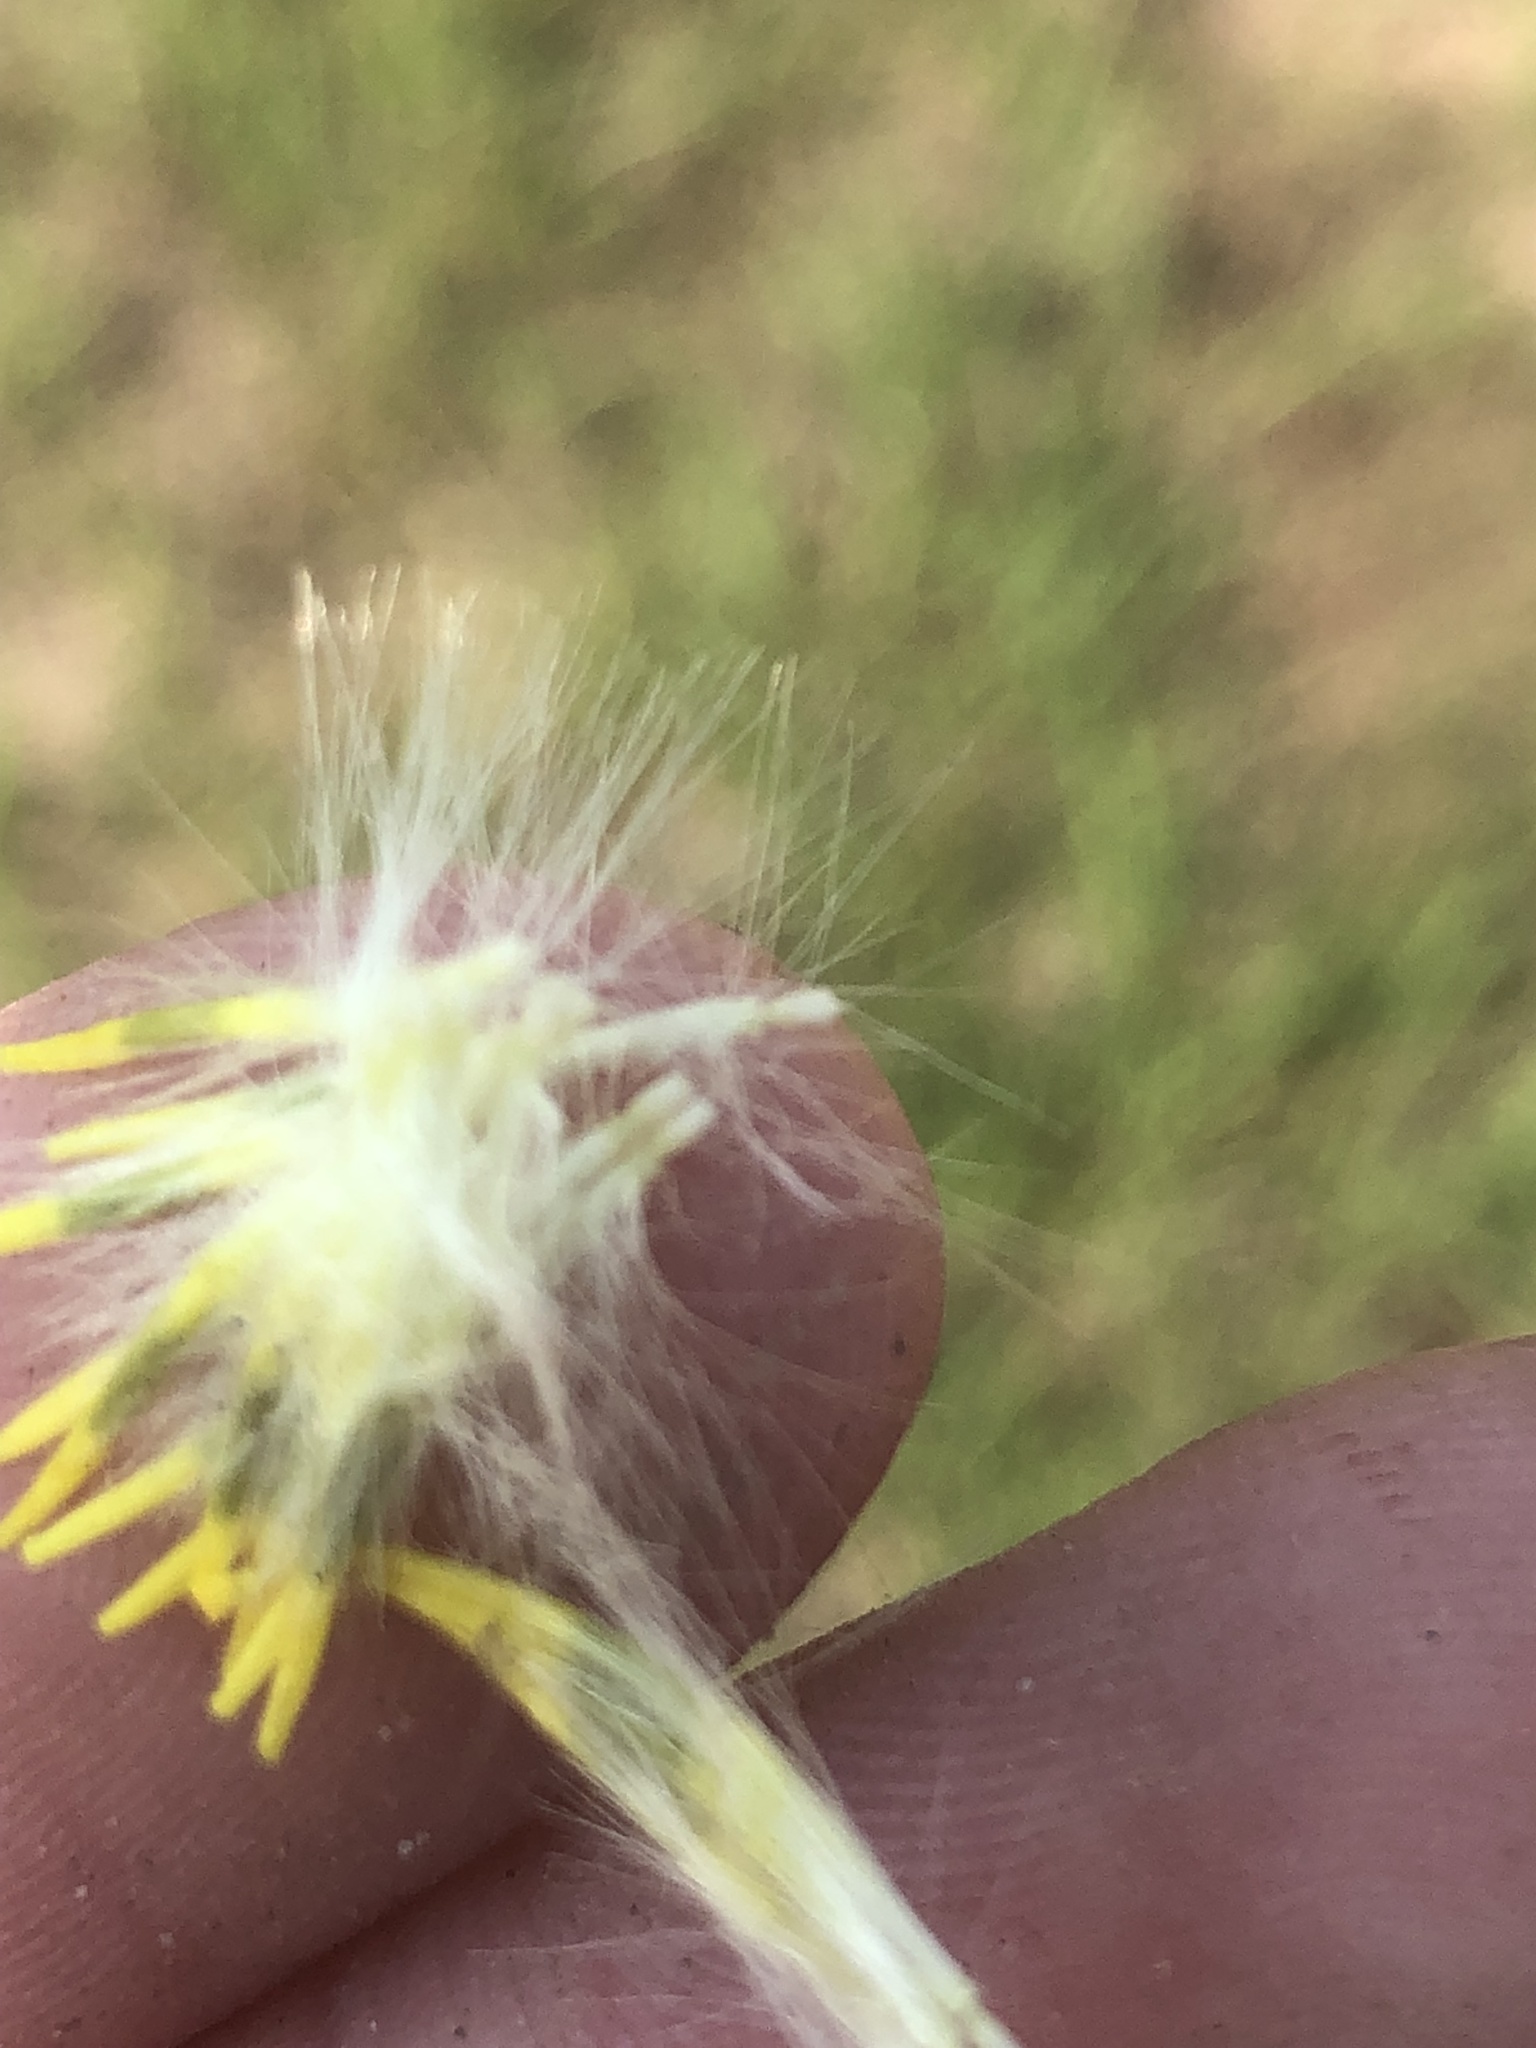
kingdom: Plantae
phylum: Tracheophyta
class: Magnoliopsida
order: Asterales
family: Asteraceae
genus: Pyrrhopappus
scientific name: Pyrrhopappus carolinianus
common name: Carolina desert-chicory
